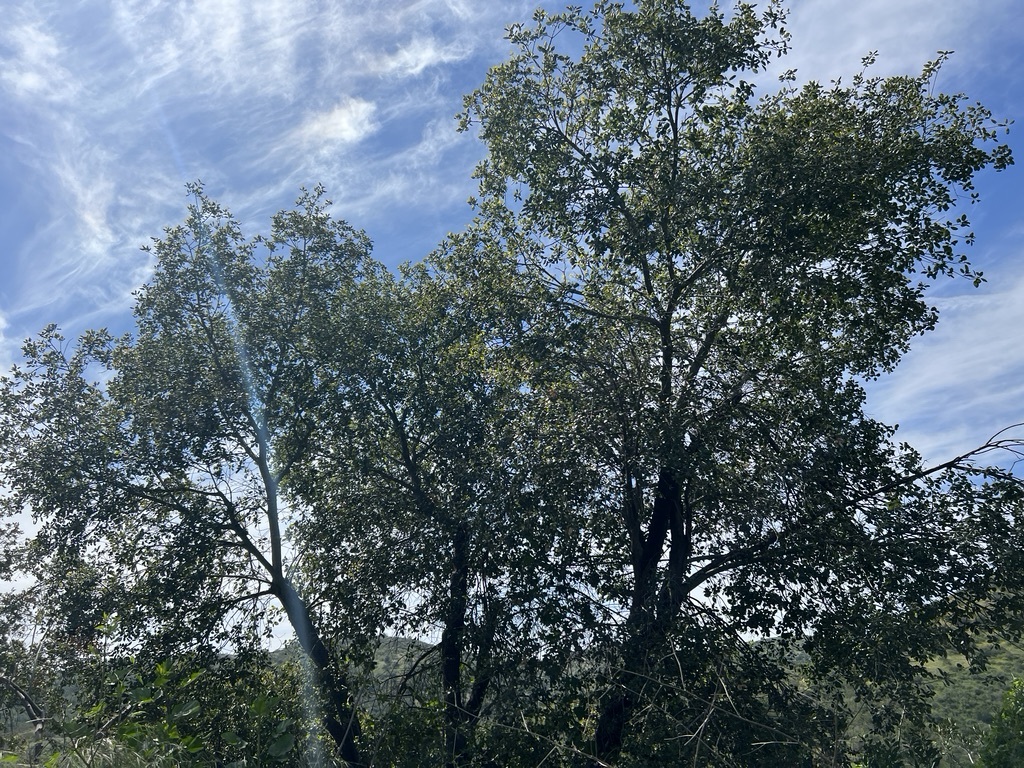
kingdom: Plantae
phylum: Tracheophyta
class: Magnoliopsida
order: Fagales
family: Fagaceae
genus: Quercus
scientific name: Quercus agrifolia
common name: California live oak
